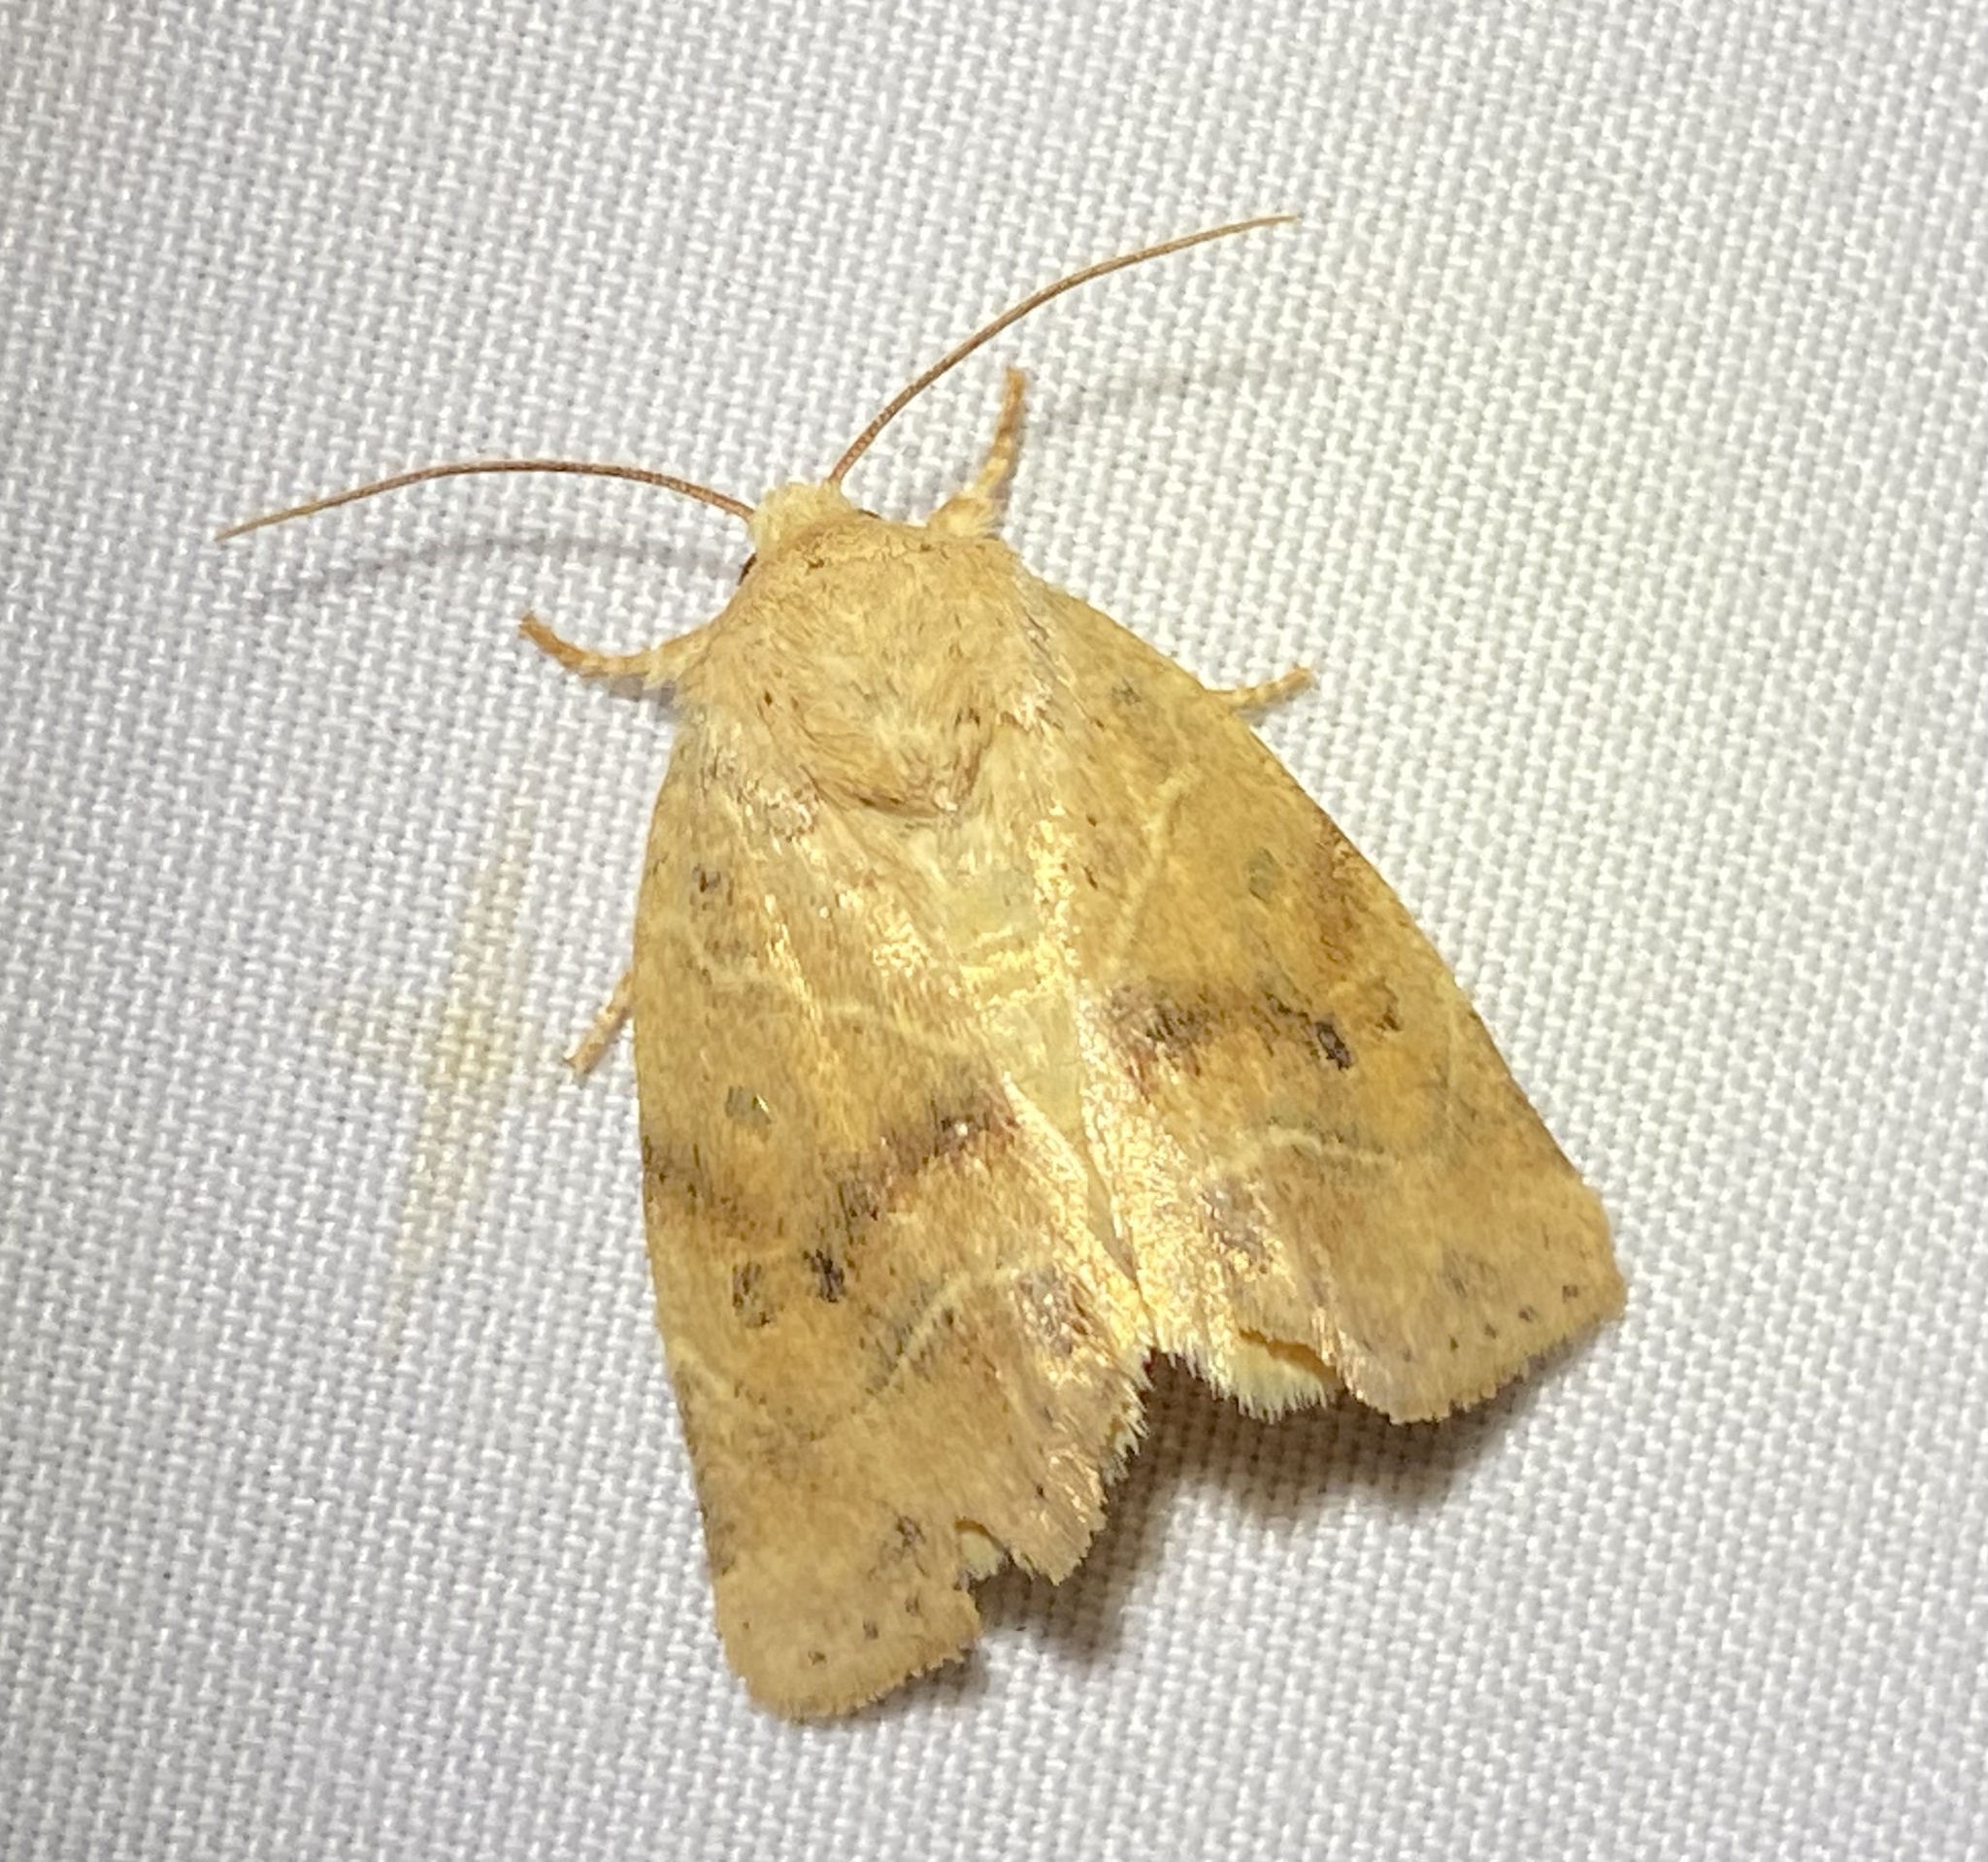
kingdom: Animalia
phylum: Arthropoda
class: Insecta
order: Lepidoptera
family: Noctuidae
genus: Cosmia
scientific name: Cosmia calami
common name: American dun-bar moth
